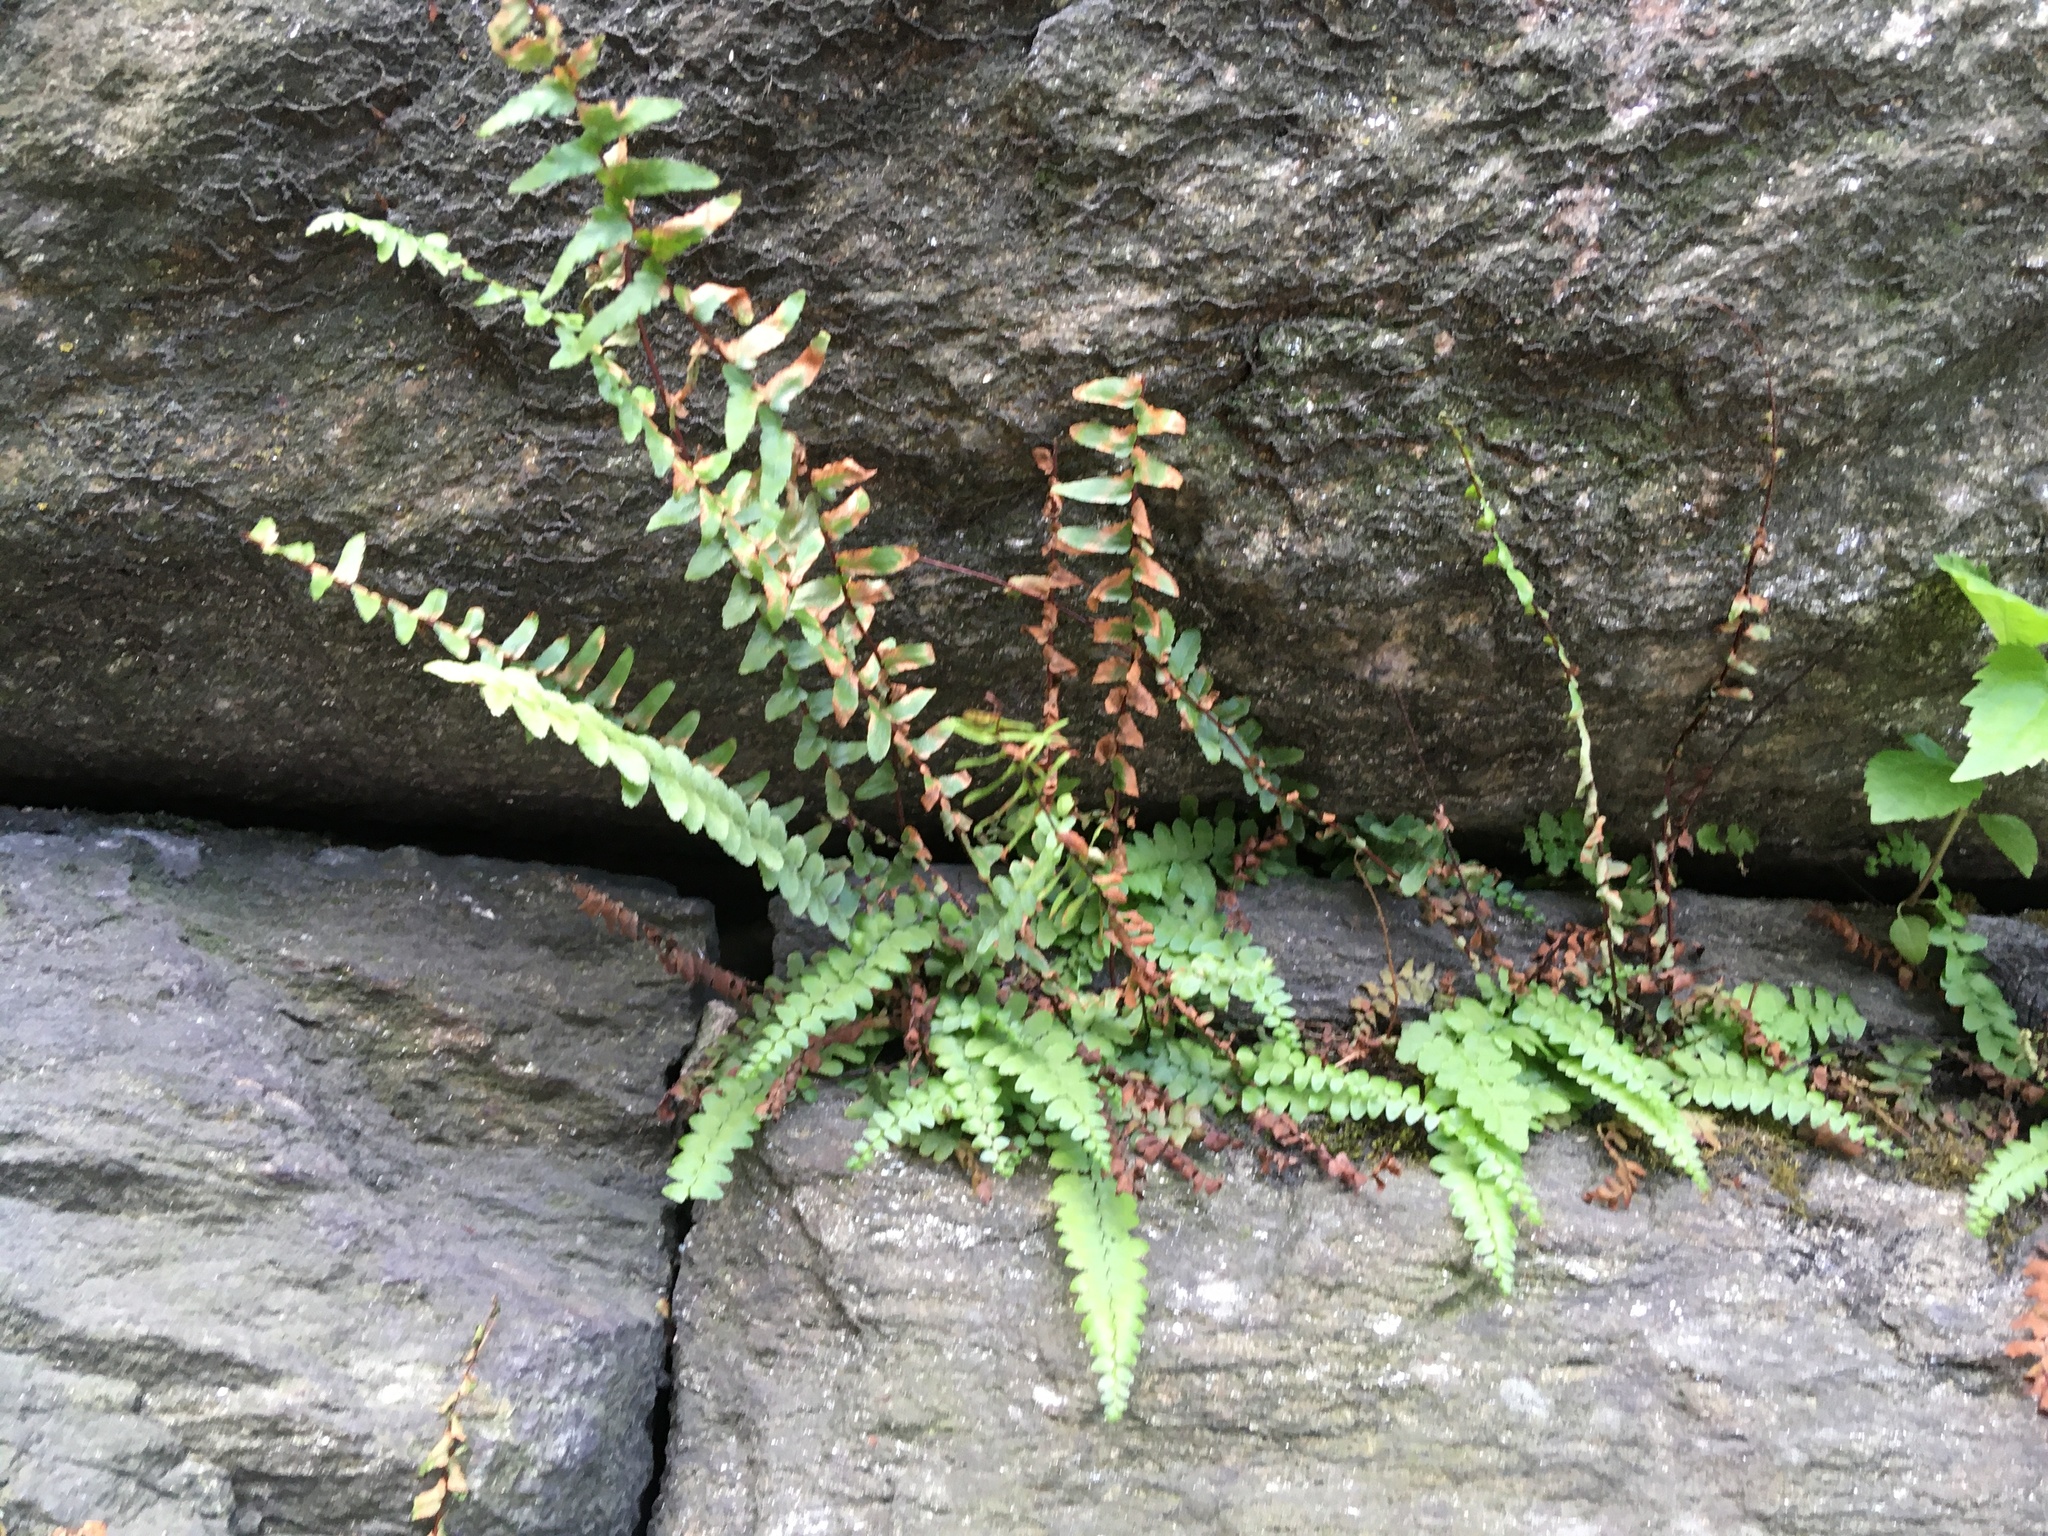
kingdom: Plantae
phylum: Tracheophyta
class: Polypodiopsida
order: Polypodiales
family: Aspleniaceae
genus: Asplenium
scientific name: Asplenium platyneuron
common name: Ebony spleenwort
